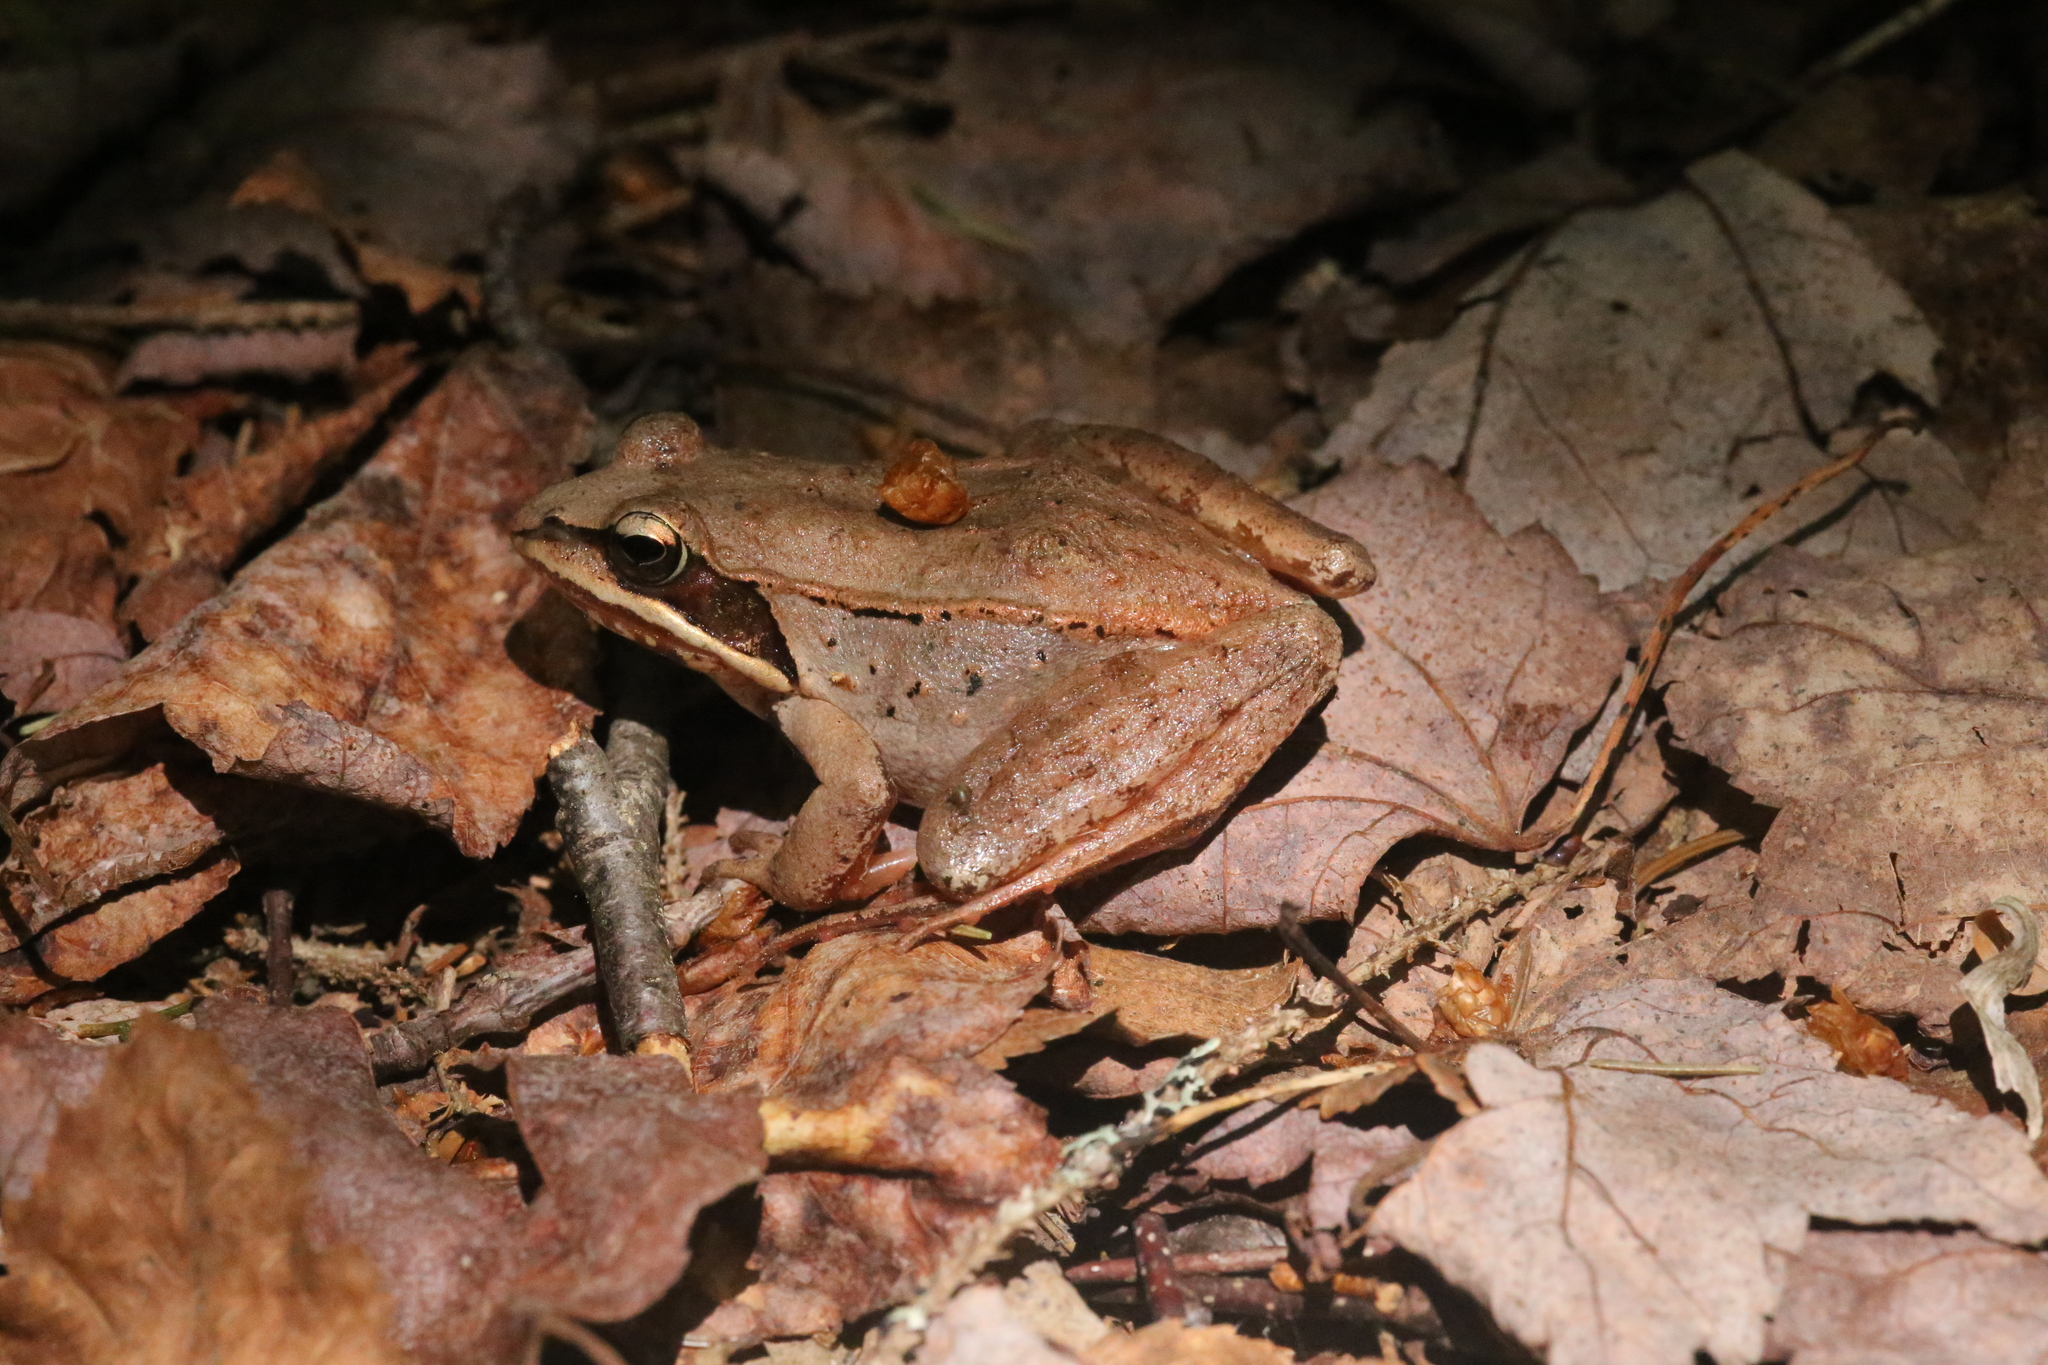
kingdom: Animalia
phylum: Chordata
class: Amphibia
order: Anura
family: Ranidae
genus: Lithobates
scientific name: Lithobates sylvaticus
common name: Wood frog
